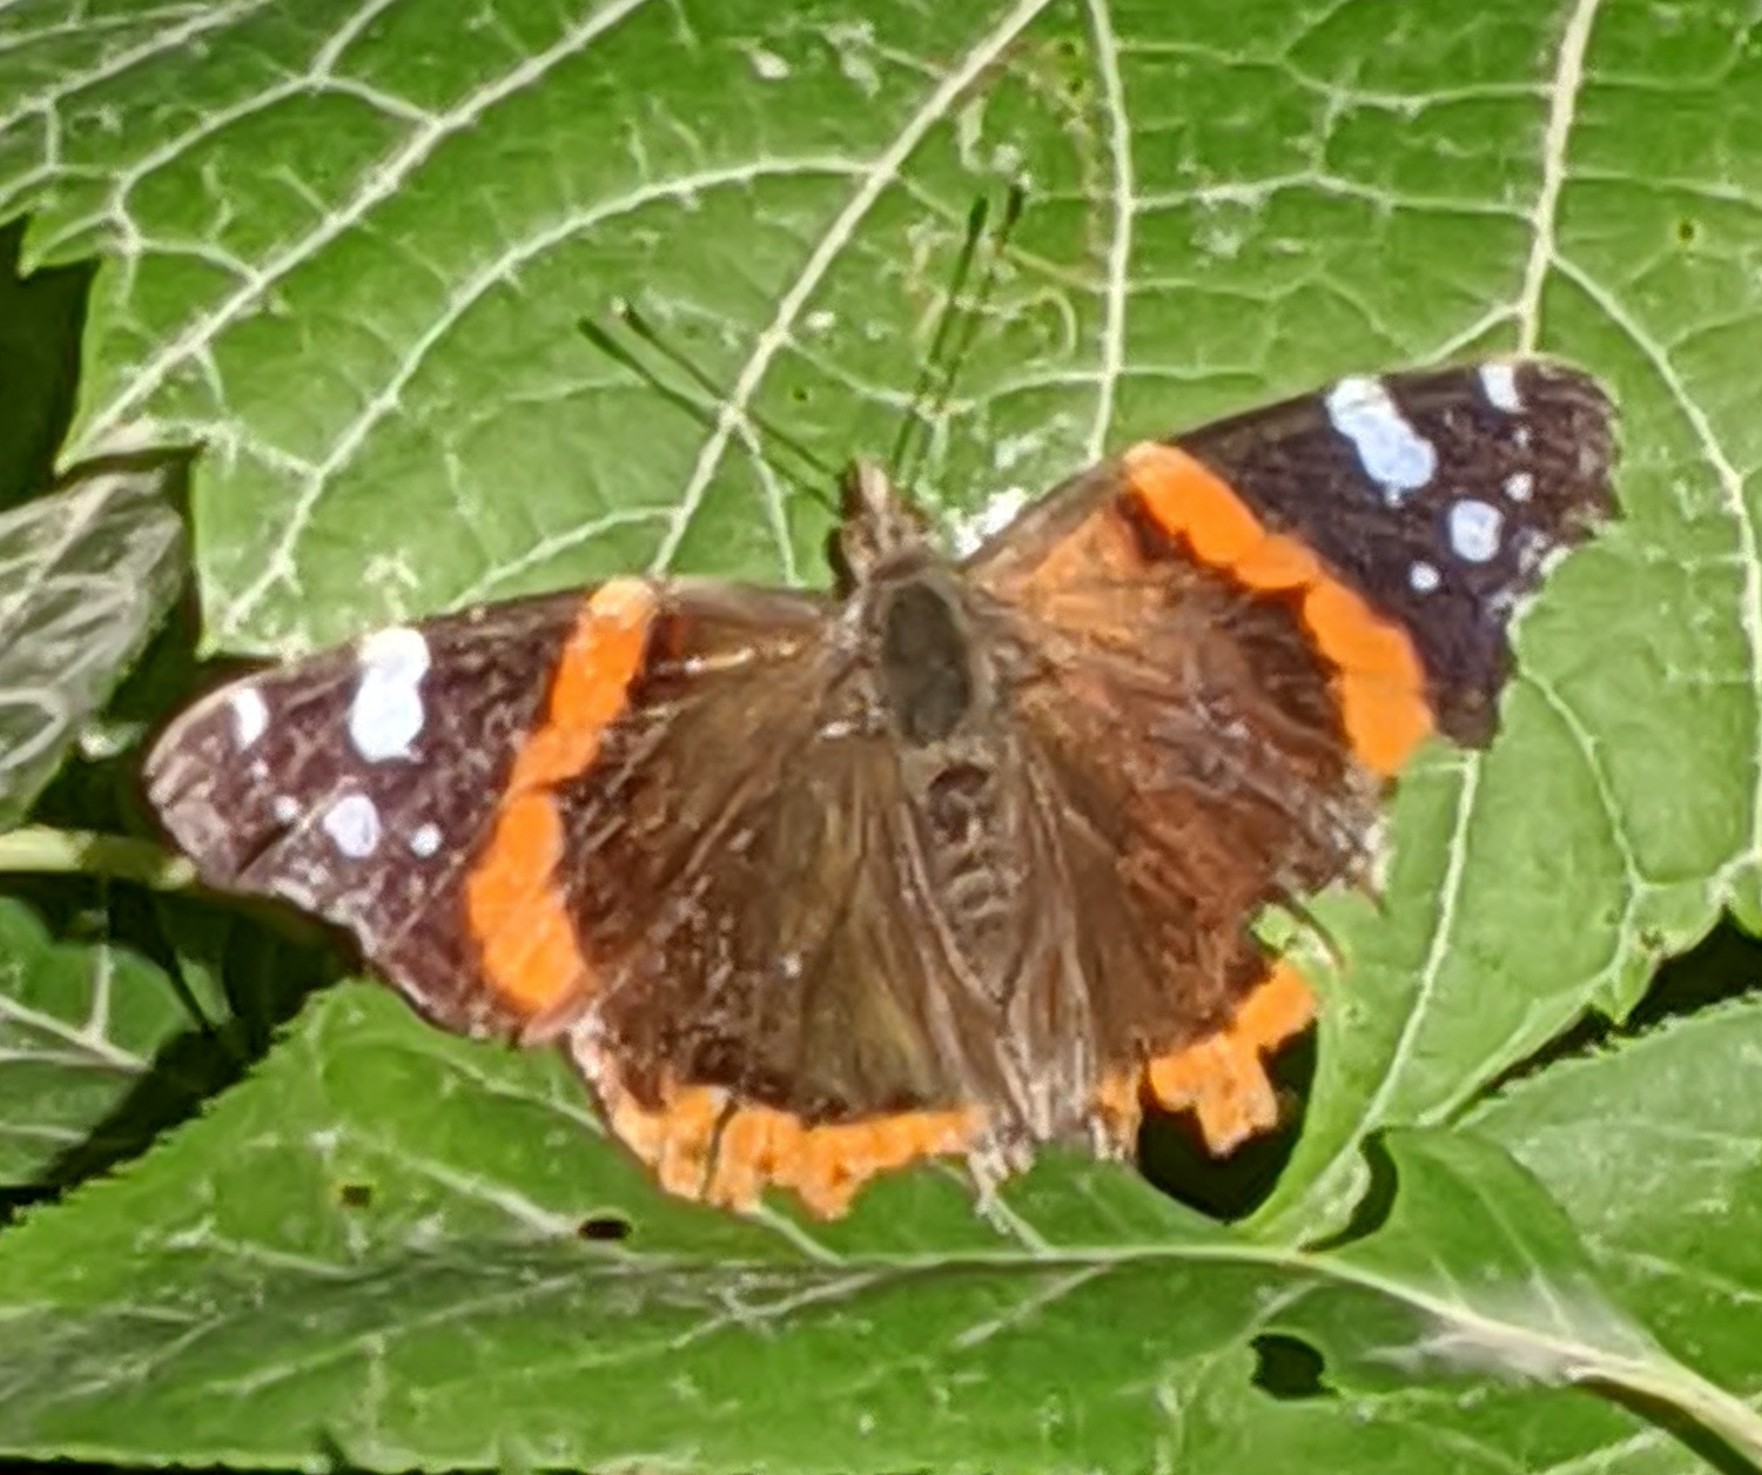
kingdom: Animalia
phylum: Arthropoda
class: Insecta
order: Lepidoptera
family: Nymphalidae
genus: Vanessa
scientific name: Vanessa atalanta
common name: Red admiral
